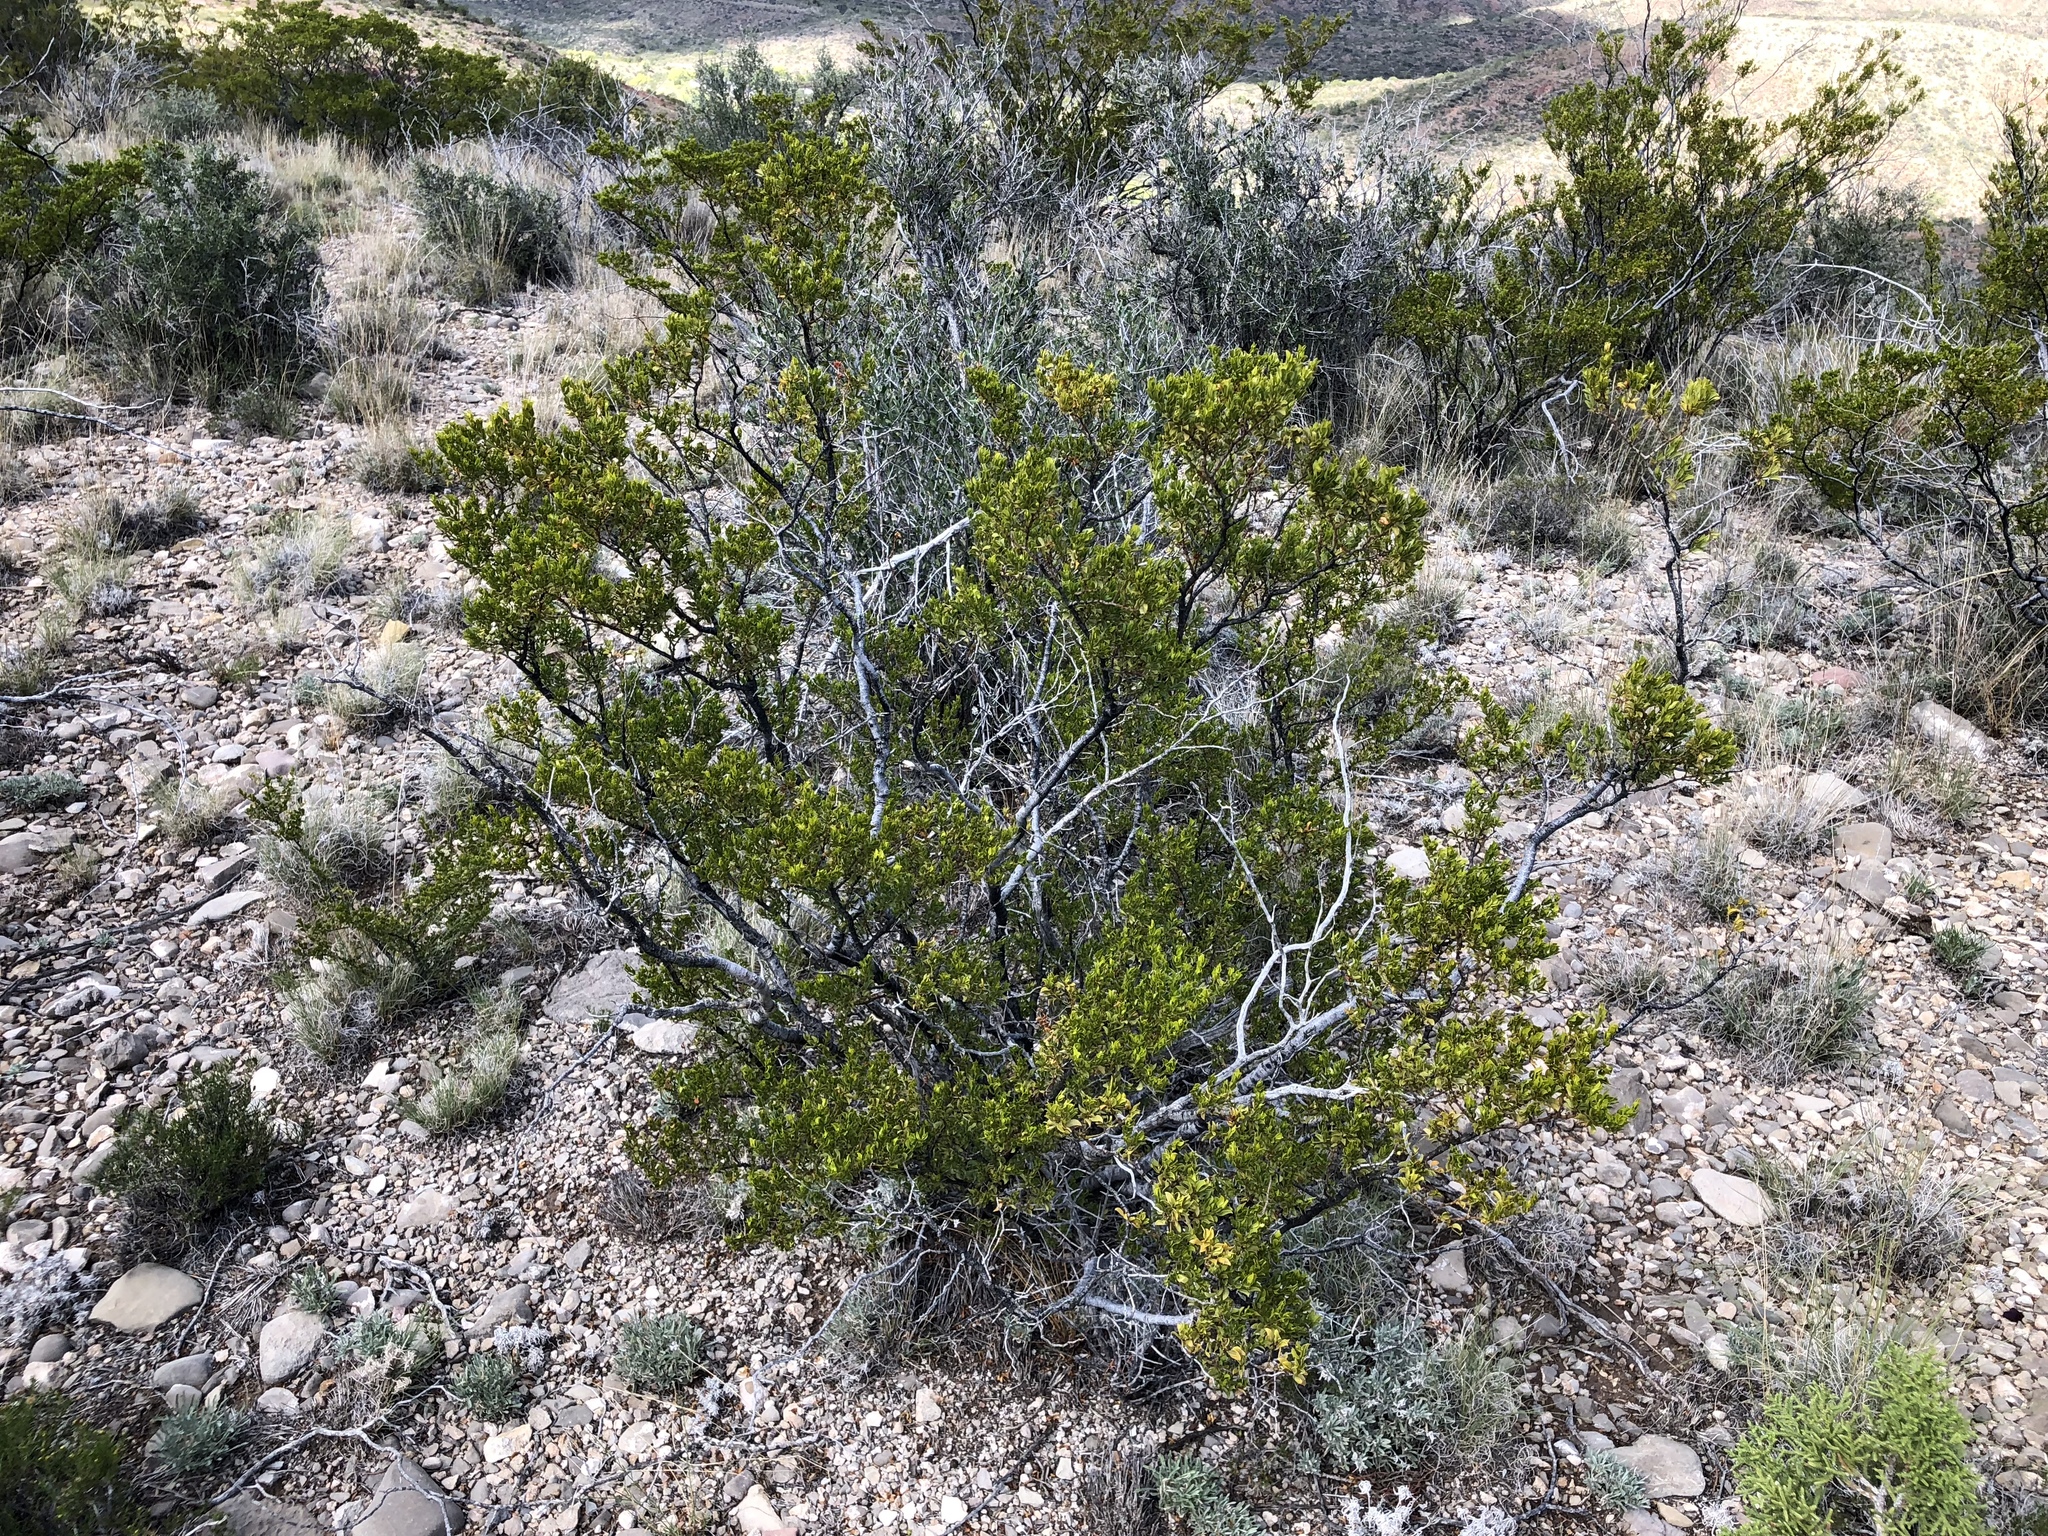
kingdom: Plantae
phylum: Tracheophyta
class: Magnoliopsida
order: Zygophyllales
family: Zygophyllaceae
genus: Larrea
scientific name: Larrea tridentata
